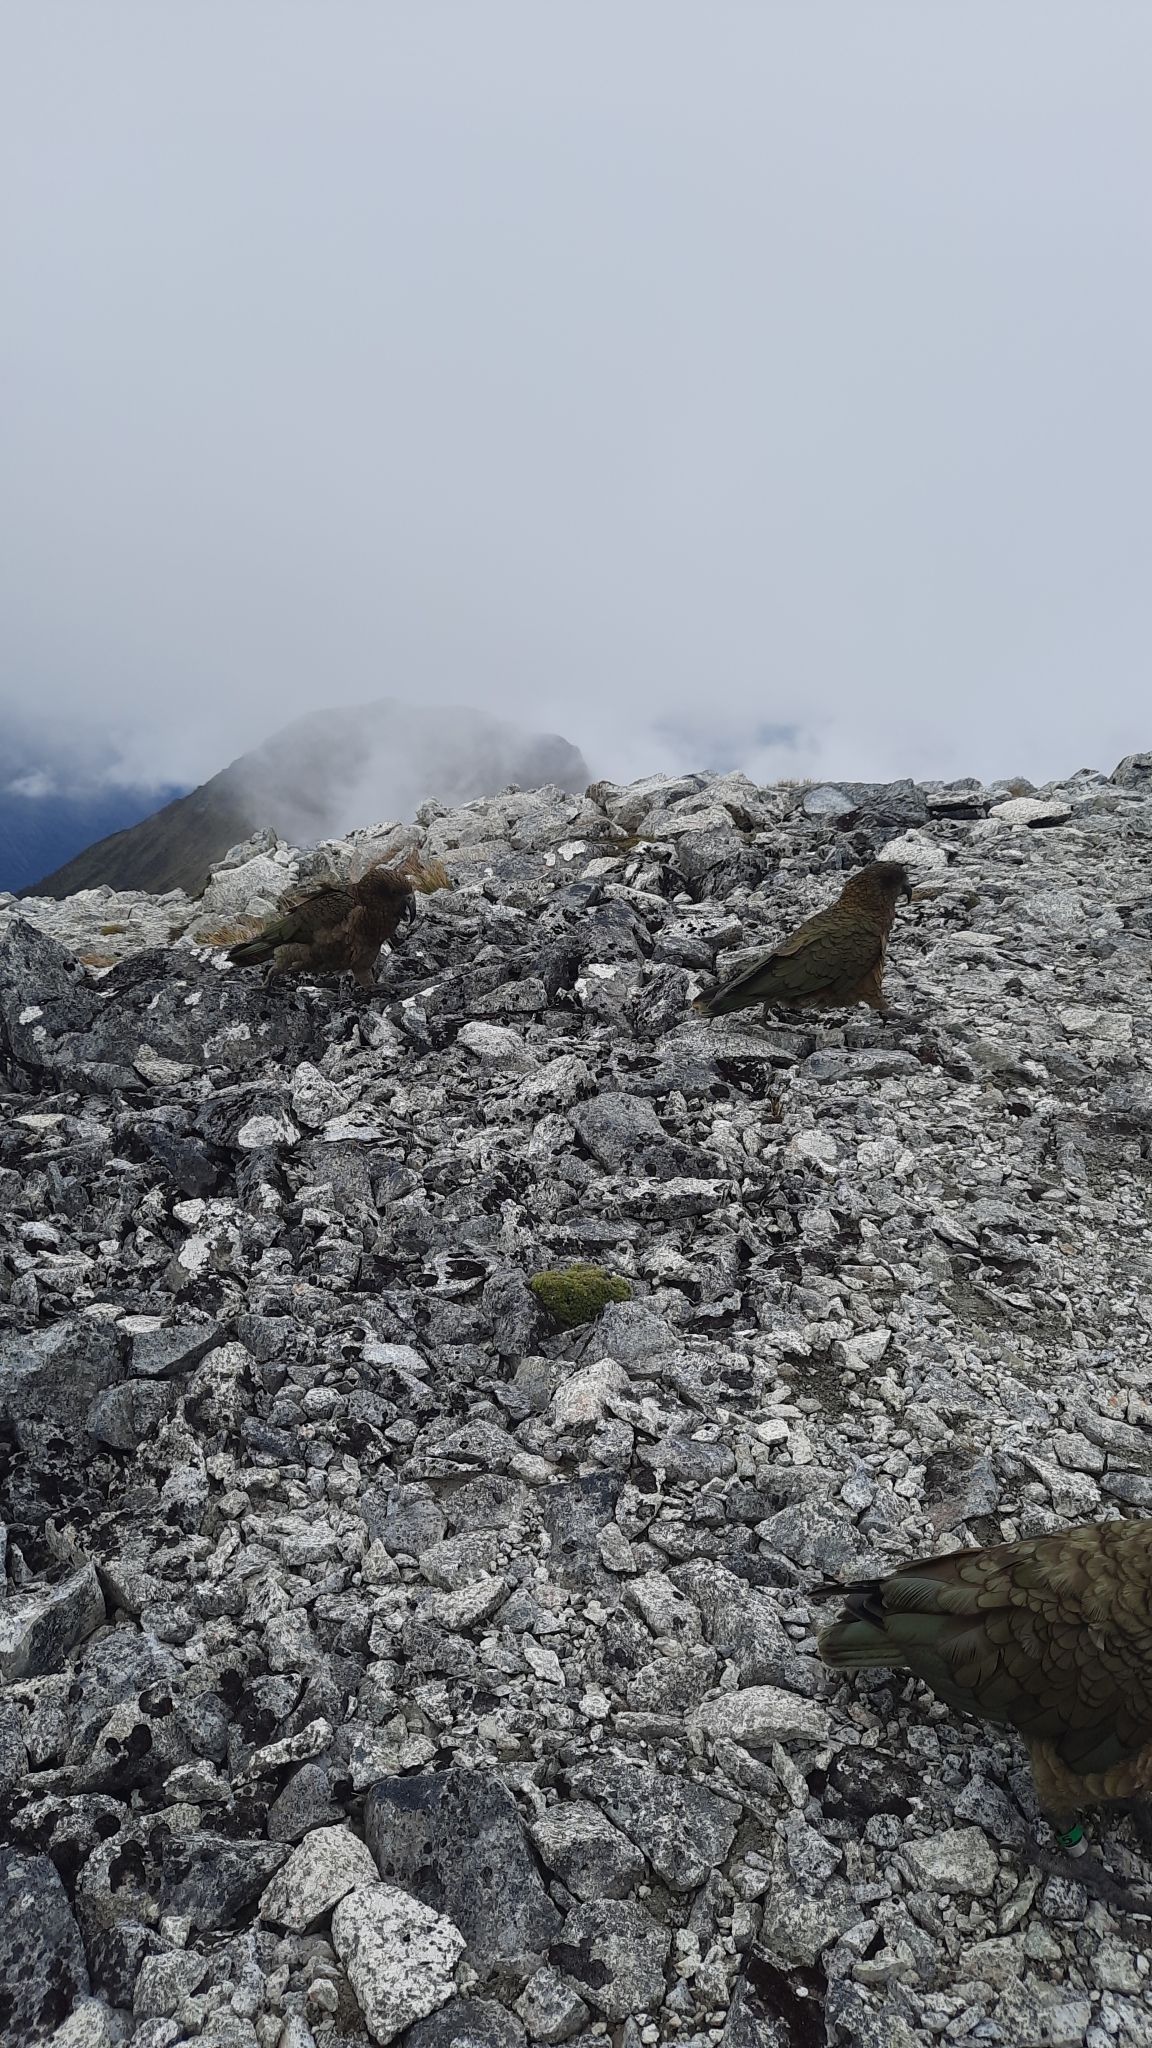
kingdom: Animalia
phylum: Chordata
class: Aves
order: Psittaciformes
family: Psittacidae
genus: Nestor
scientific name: Nestor notabilis
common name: Kea
